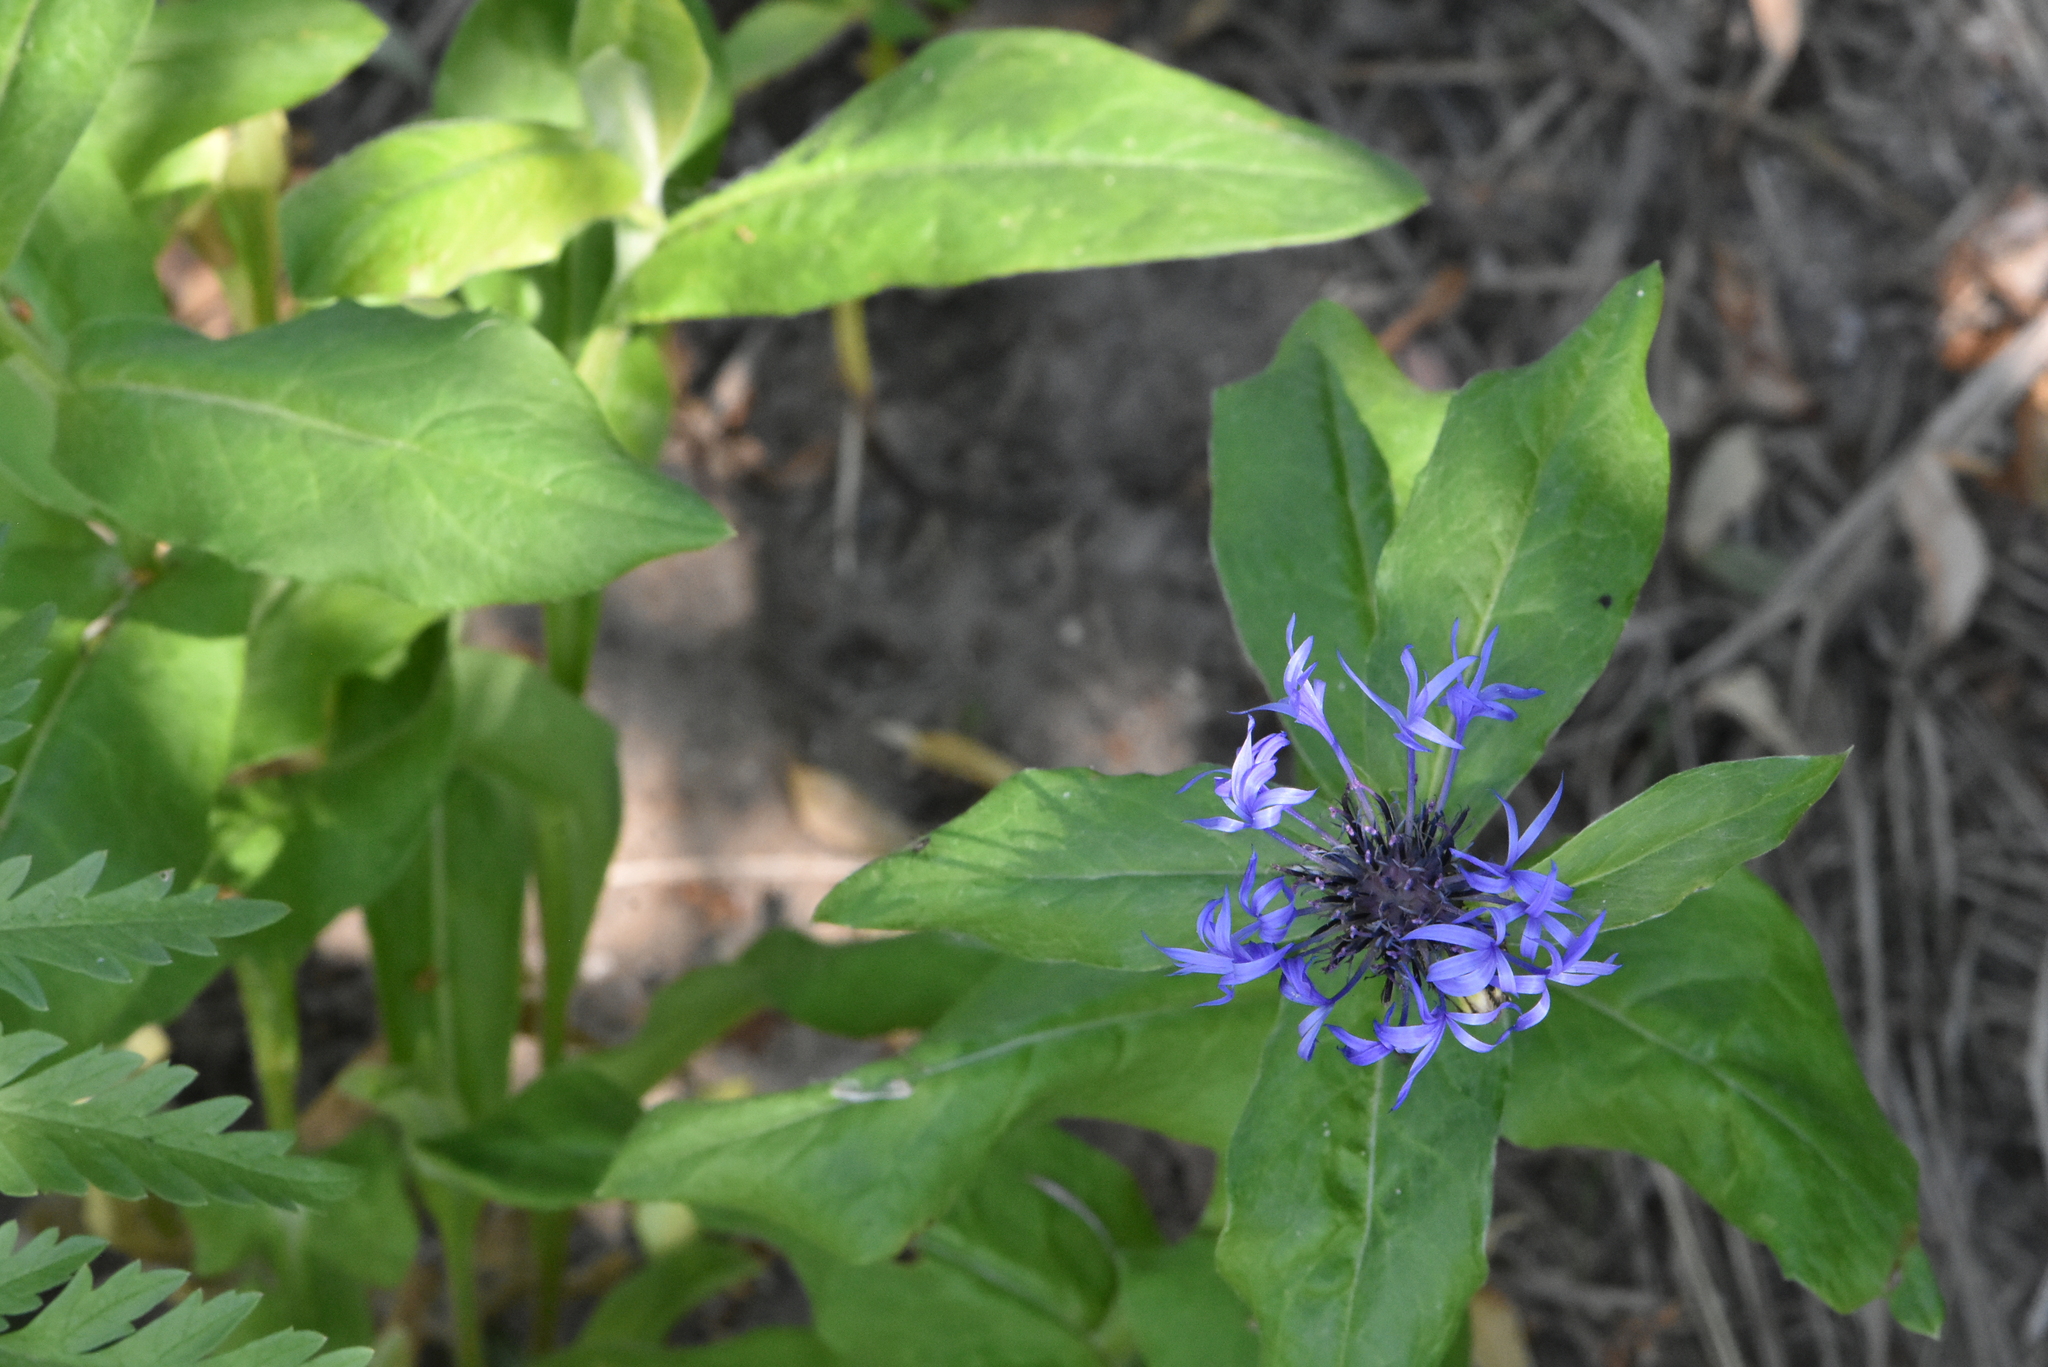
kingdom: Plantae
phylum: Tracheophyta
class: Magnoliopsida
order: Asterales
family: Asteraceae
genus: Centaurea
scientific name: Centaurea montana
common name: Perennial cornflower
